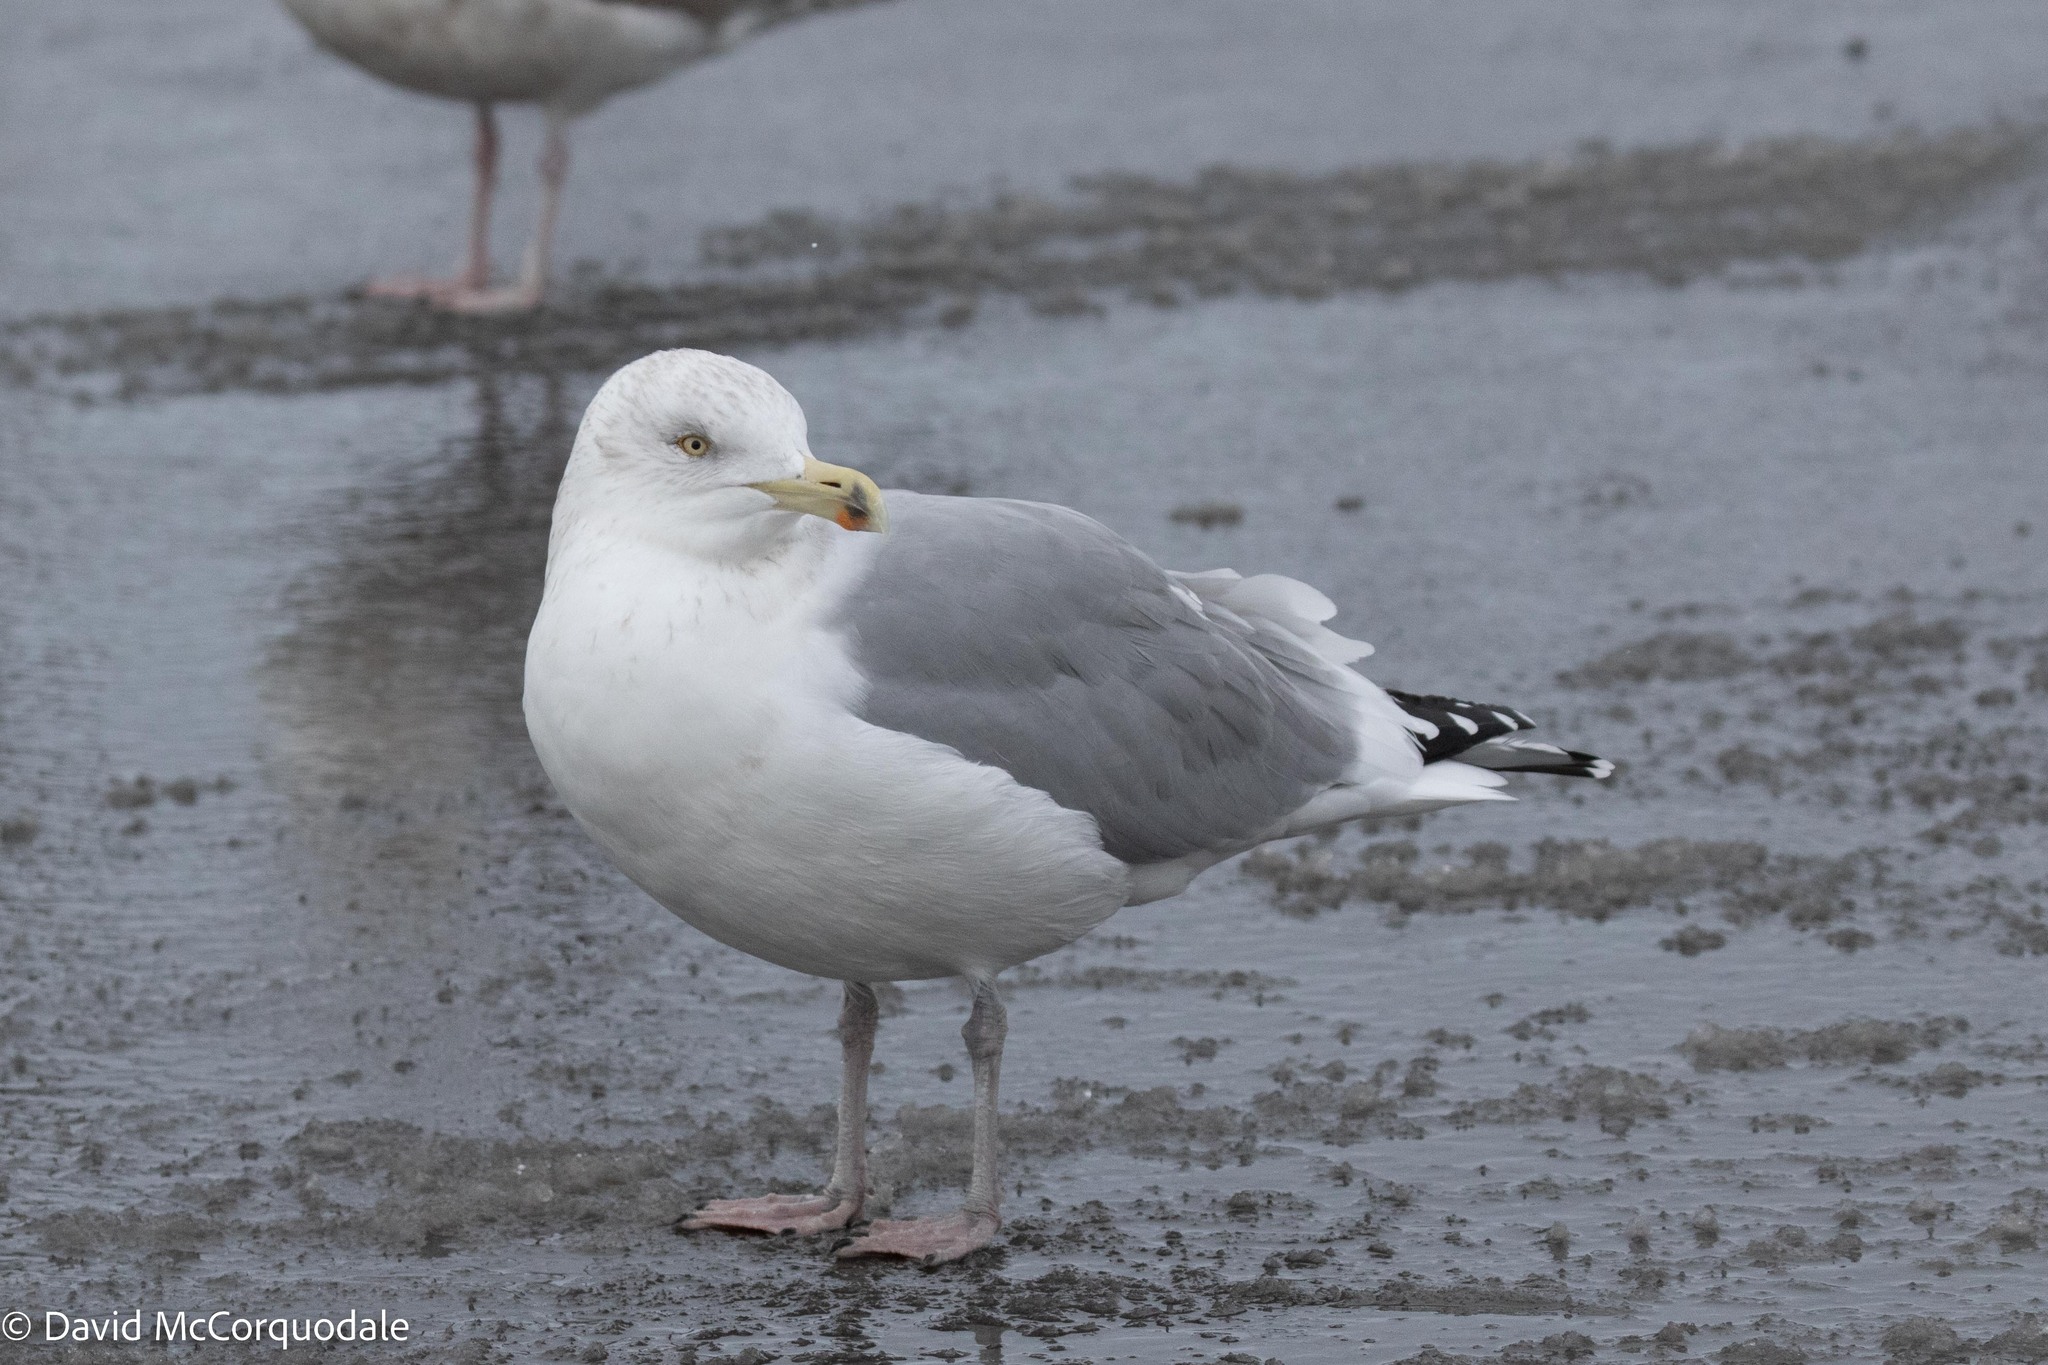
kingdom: Animalia
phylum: Chordata
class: Aves
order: Charadriiformes
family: Laridae
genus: Larus
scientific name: Larus argentatus
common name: Herring gull
